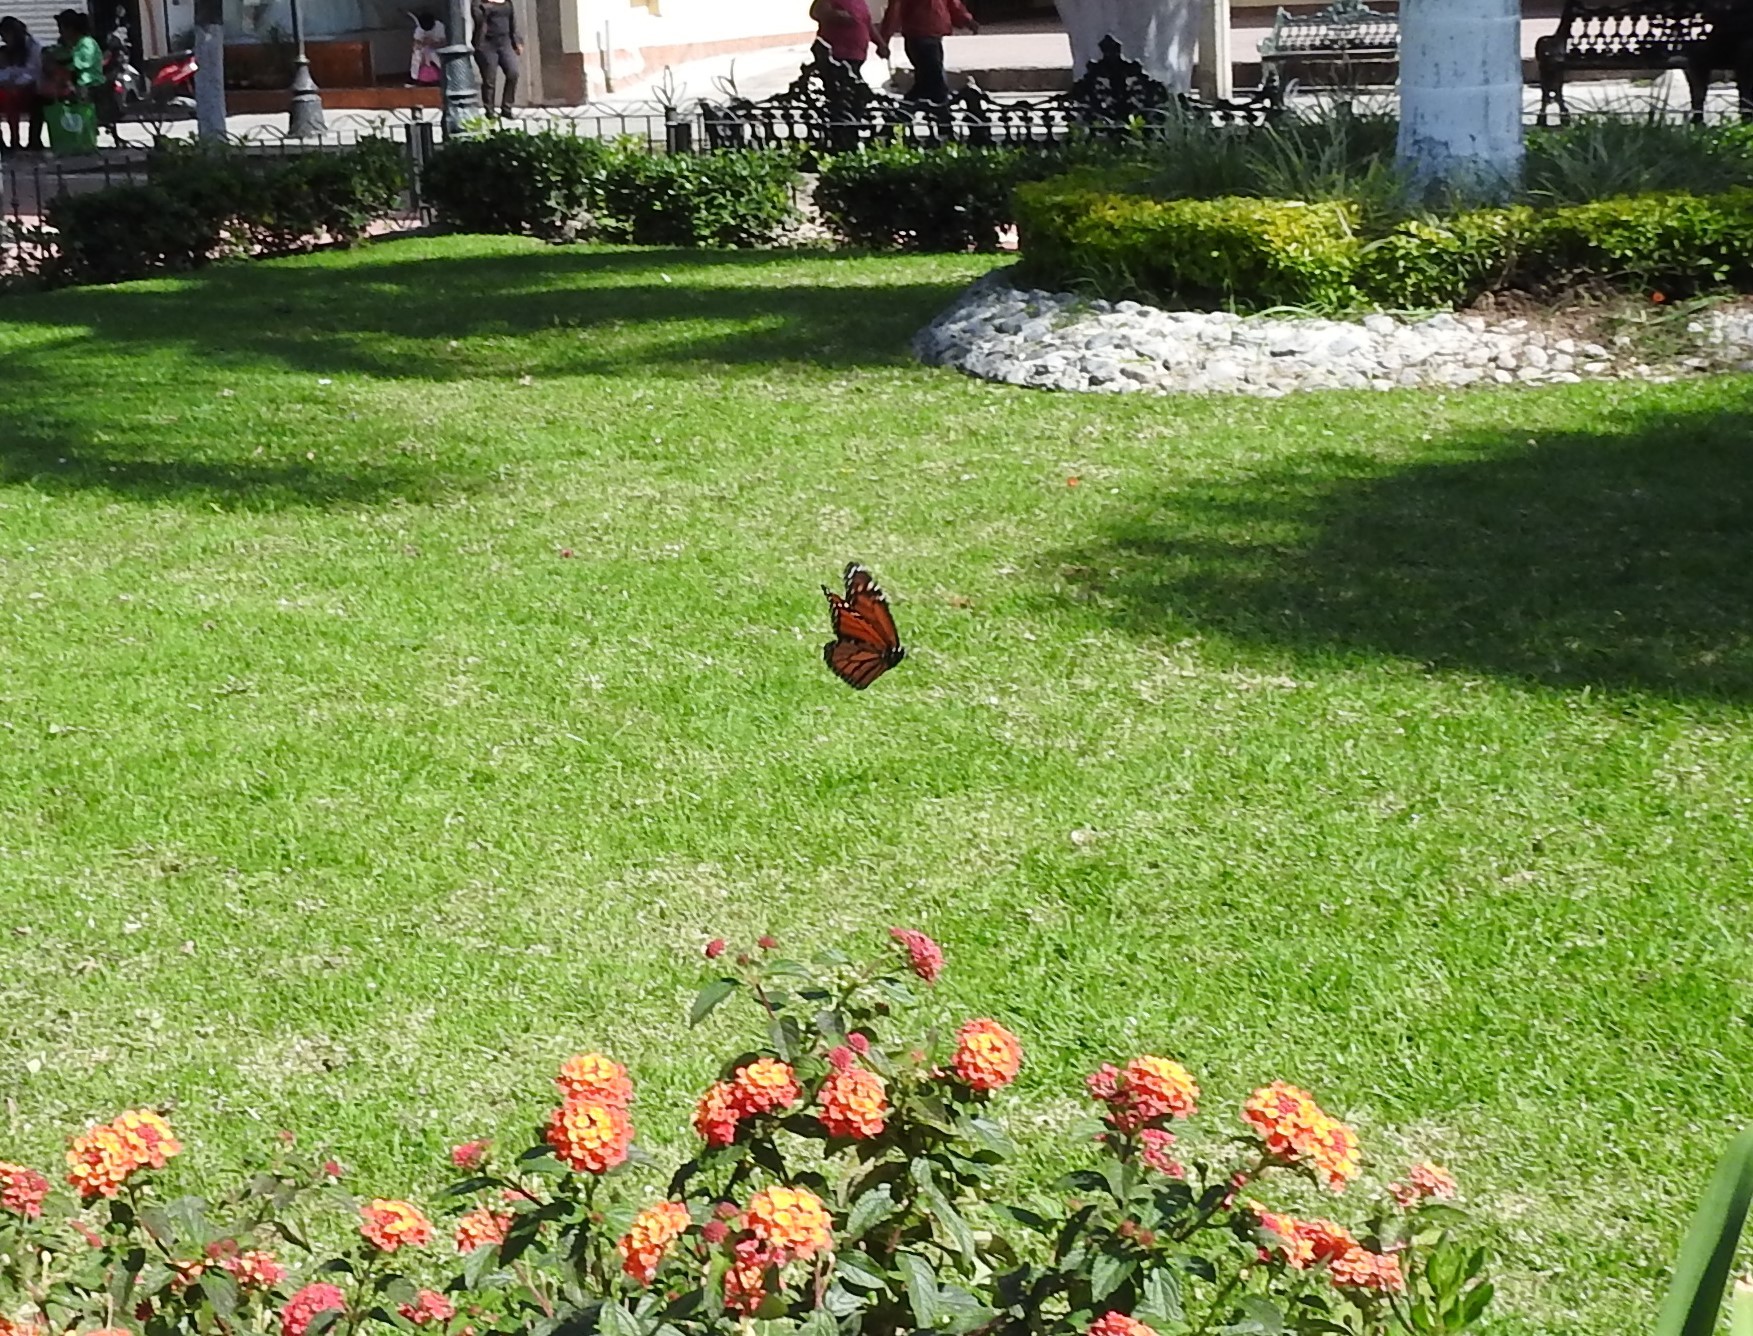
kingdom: Animalia
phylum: Arthropoda
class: Insecta
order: Lepidoptera
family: Nymphalidae
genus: Danaus
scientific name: Danaus plexippus
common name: Monarch
